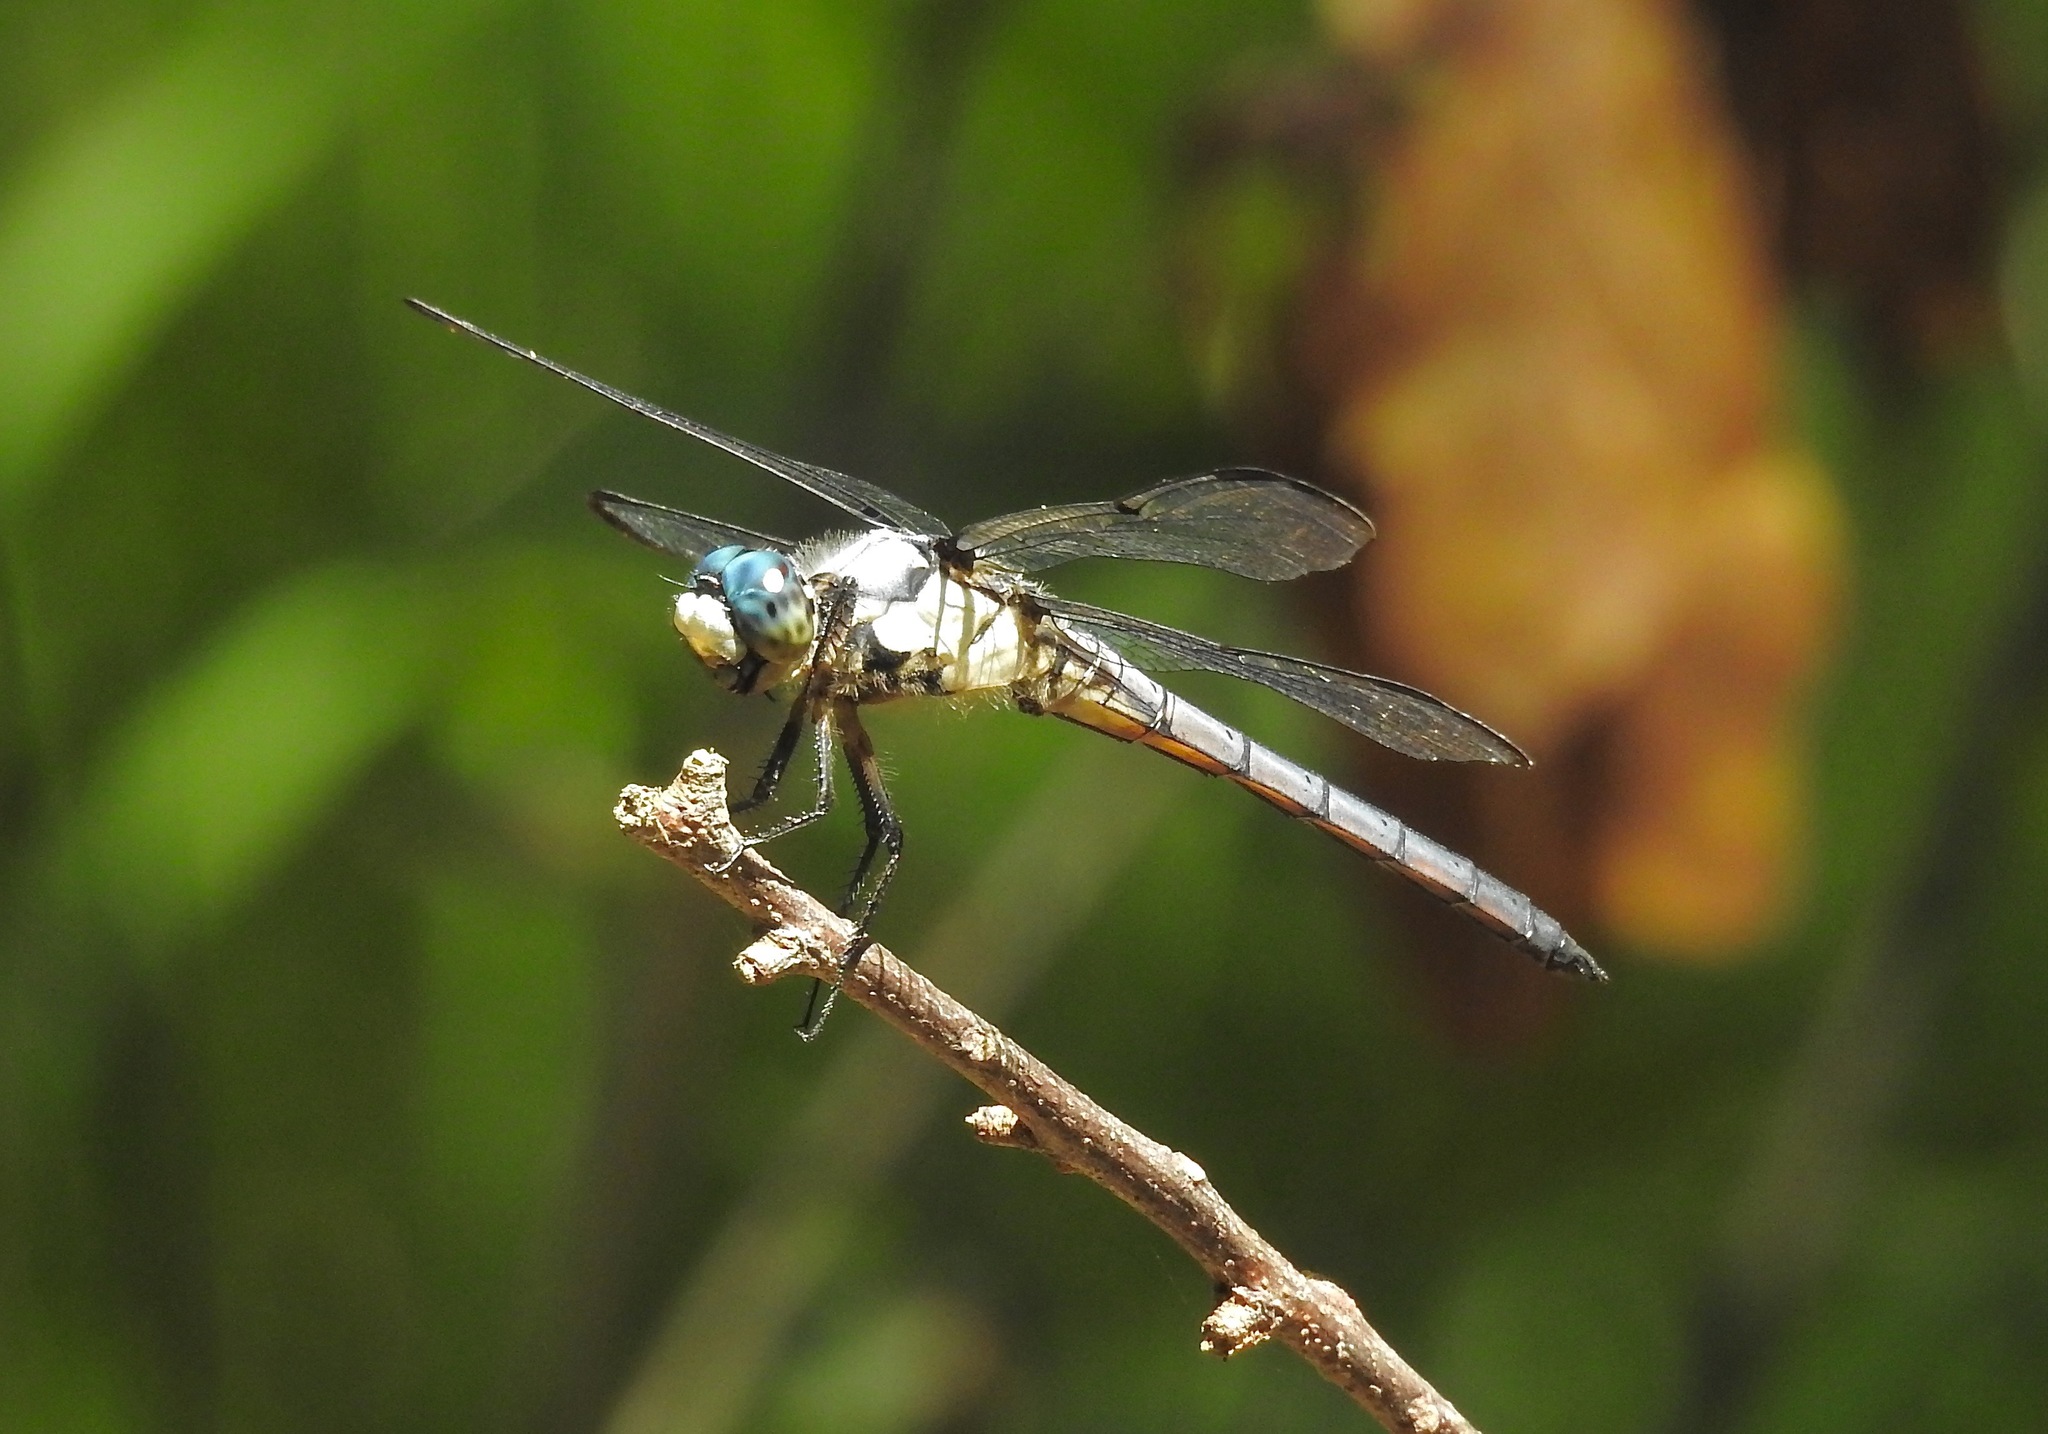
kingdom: Animalia
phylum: Arthropoda
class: Insecta
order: Odonata
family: Libellulidae
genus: Libellula
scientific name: Libellula vibrans
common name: Great blue skimmer
